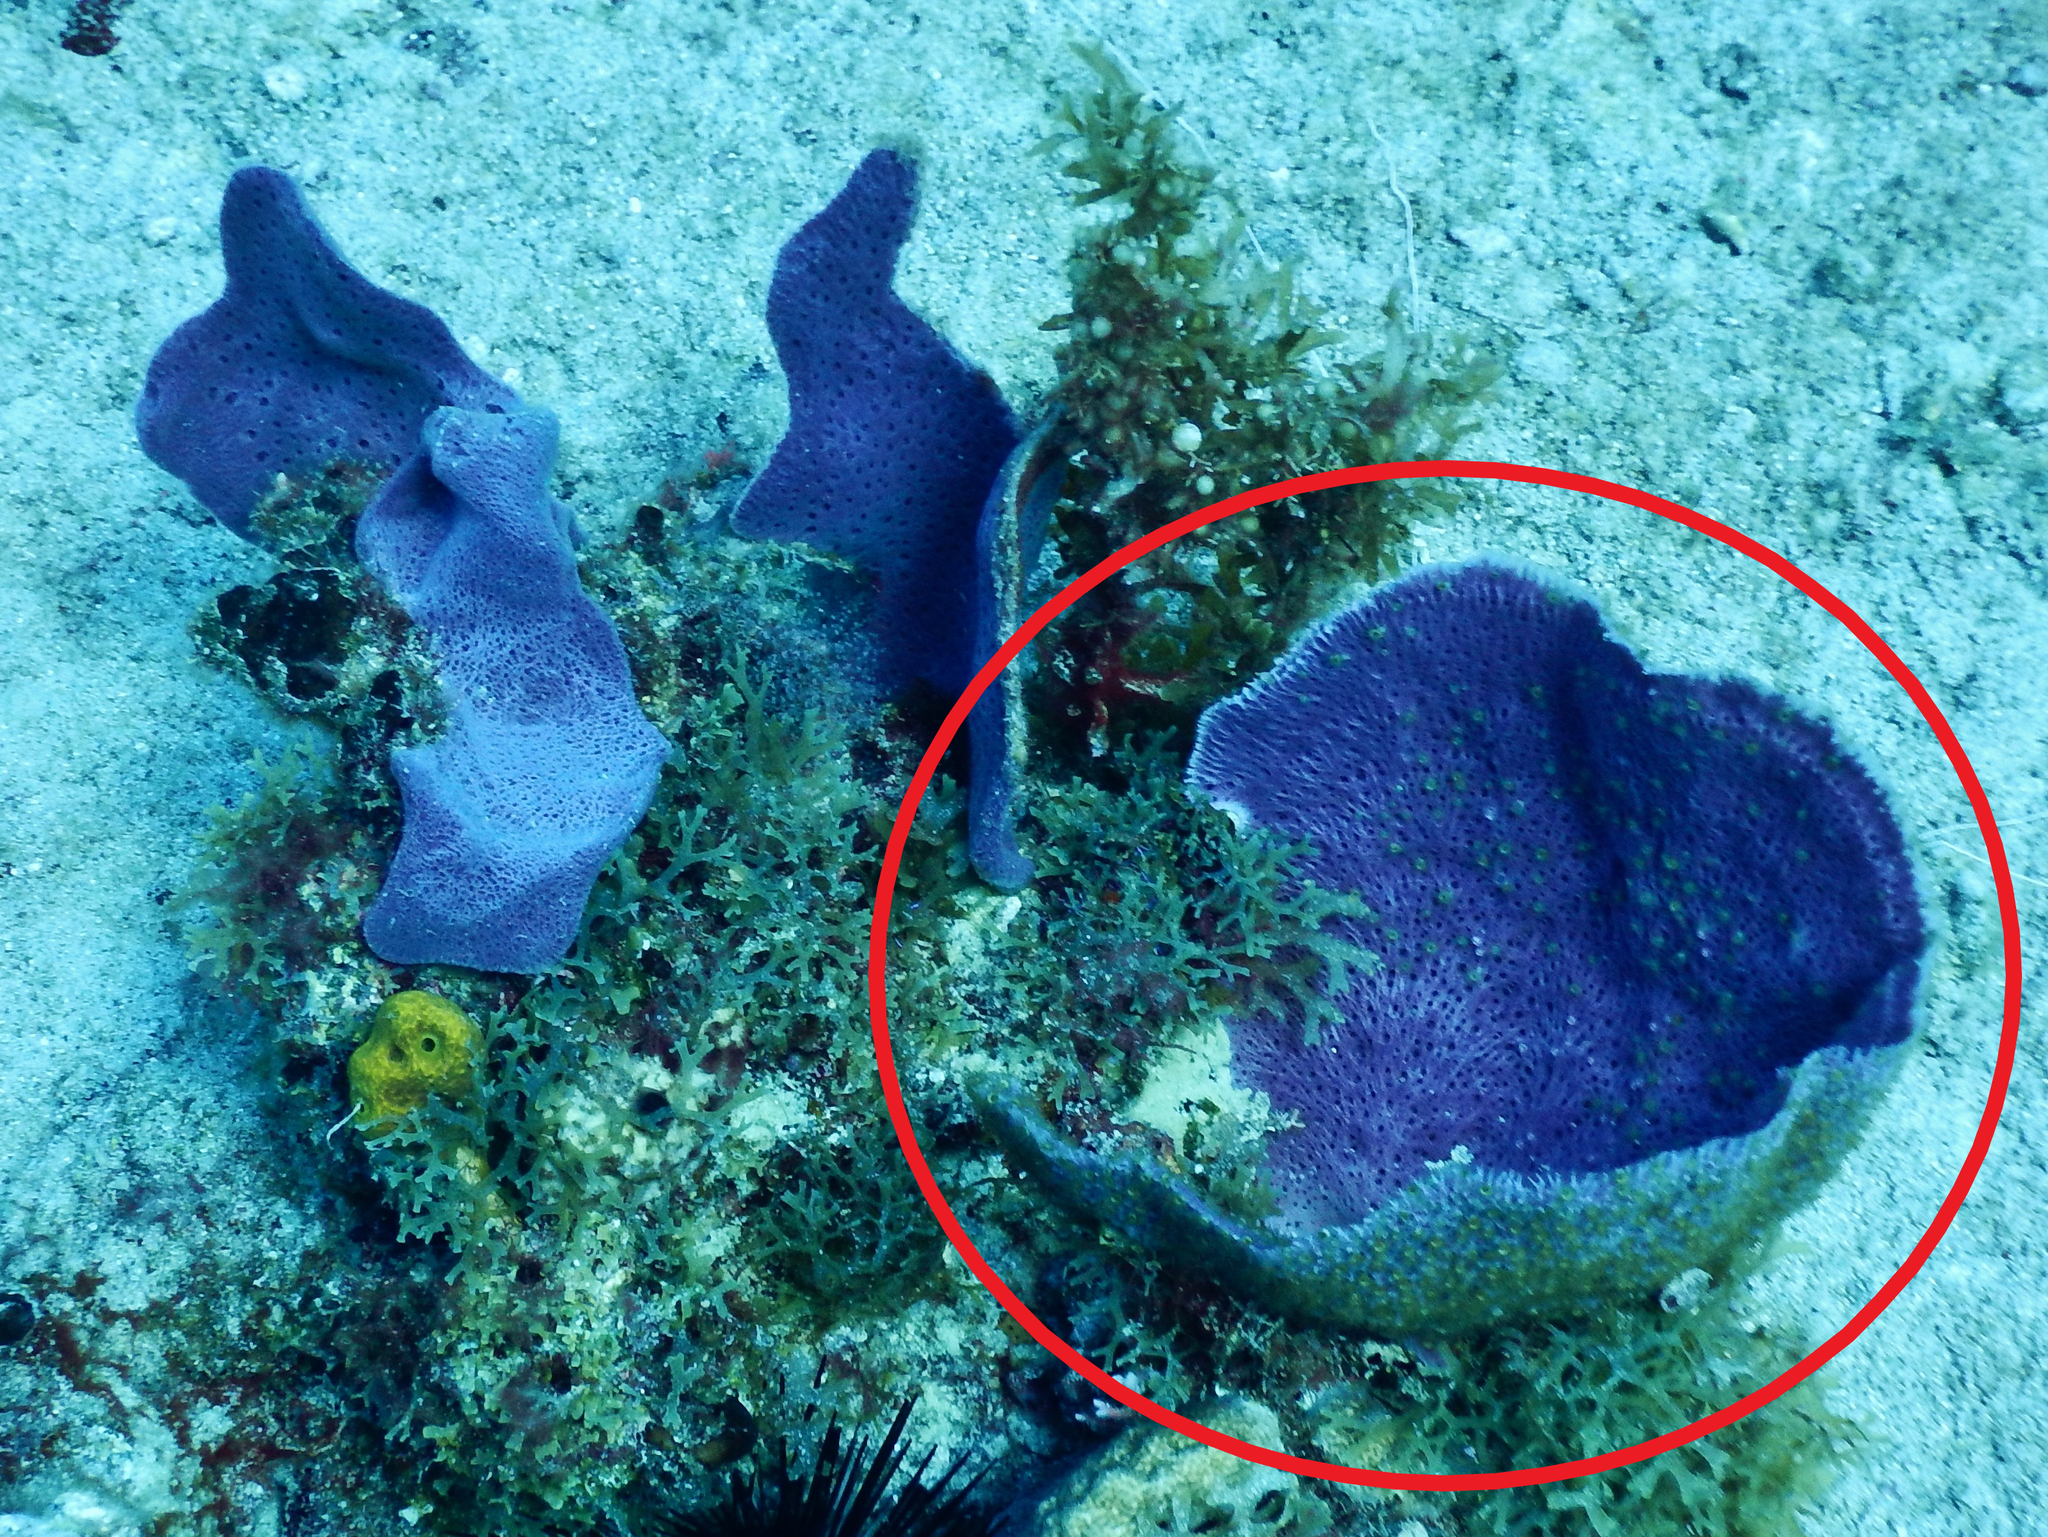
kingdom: Animalia
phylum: Porifera
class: Demospongiae
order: Haplosclerida
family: Niphatidae
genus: Niphates
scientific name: Niphates digitalis
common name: Pink vase sponge
